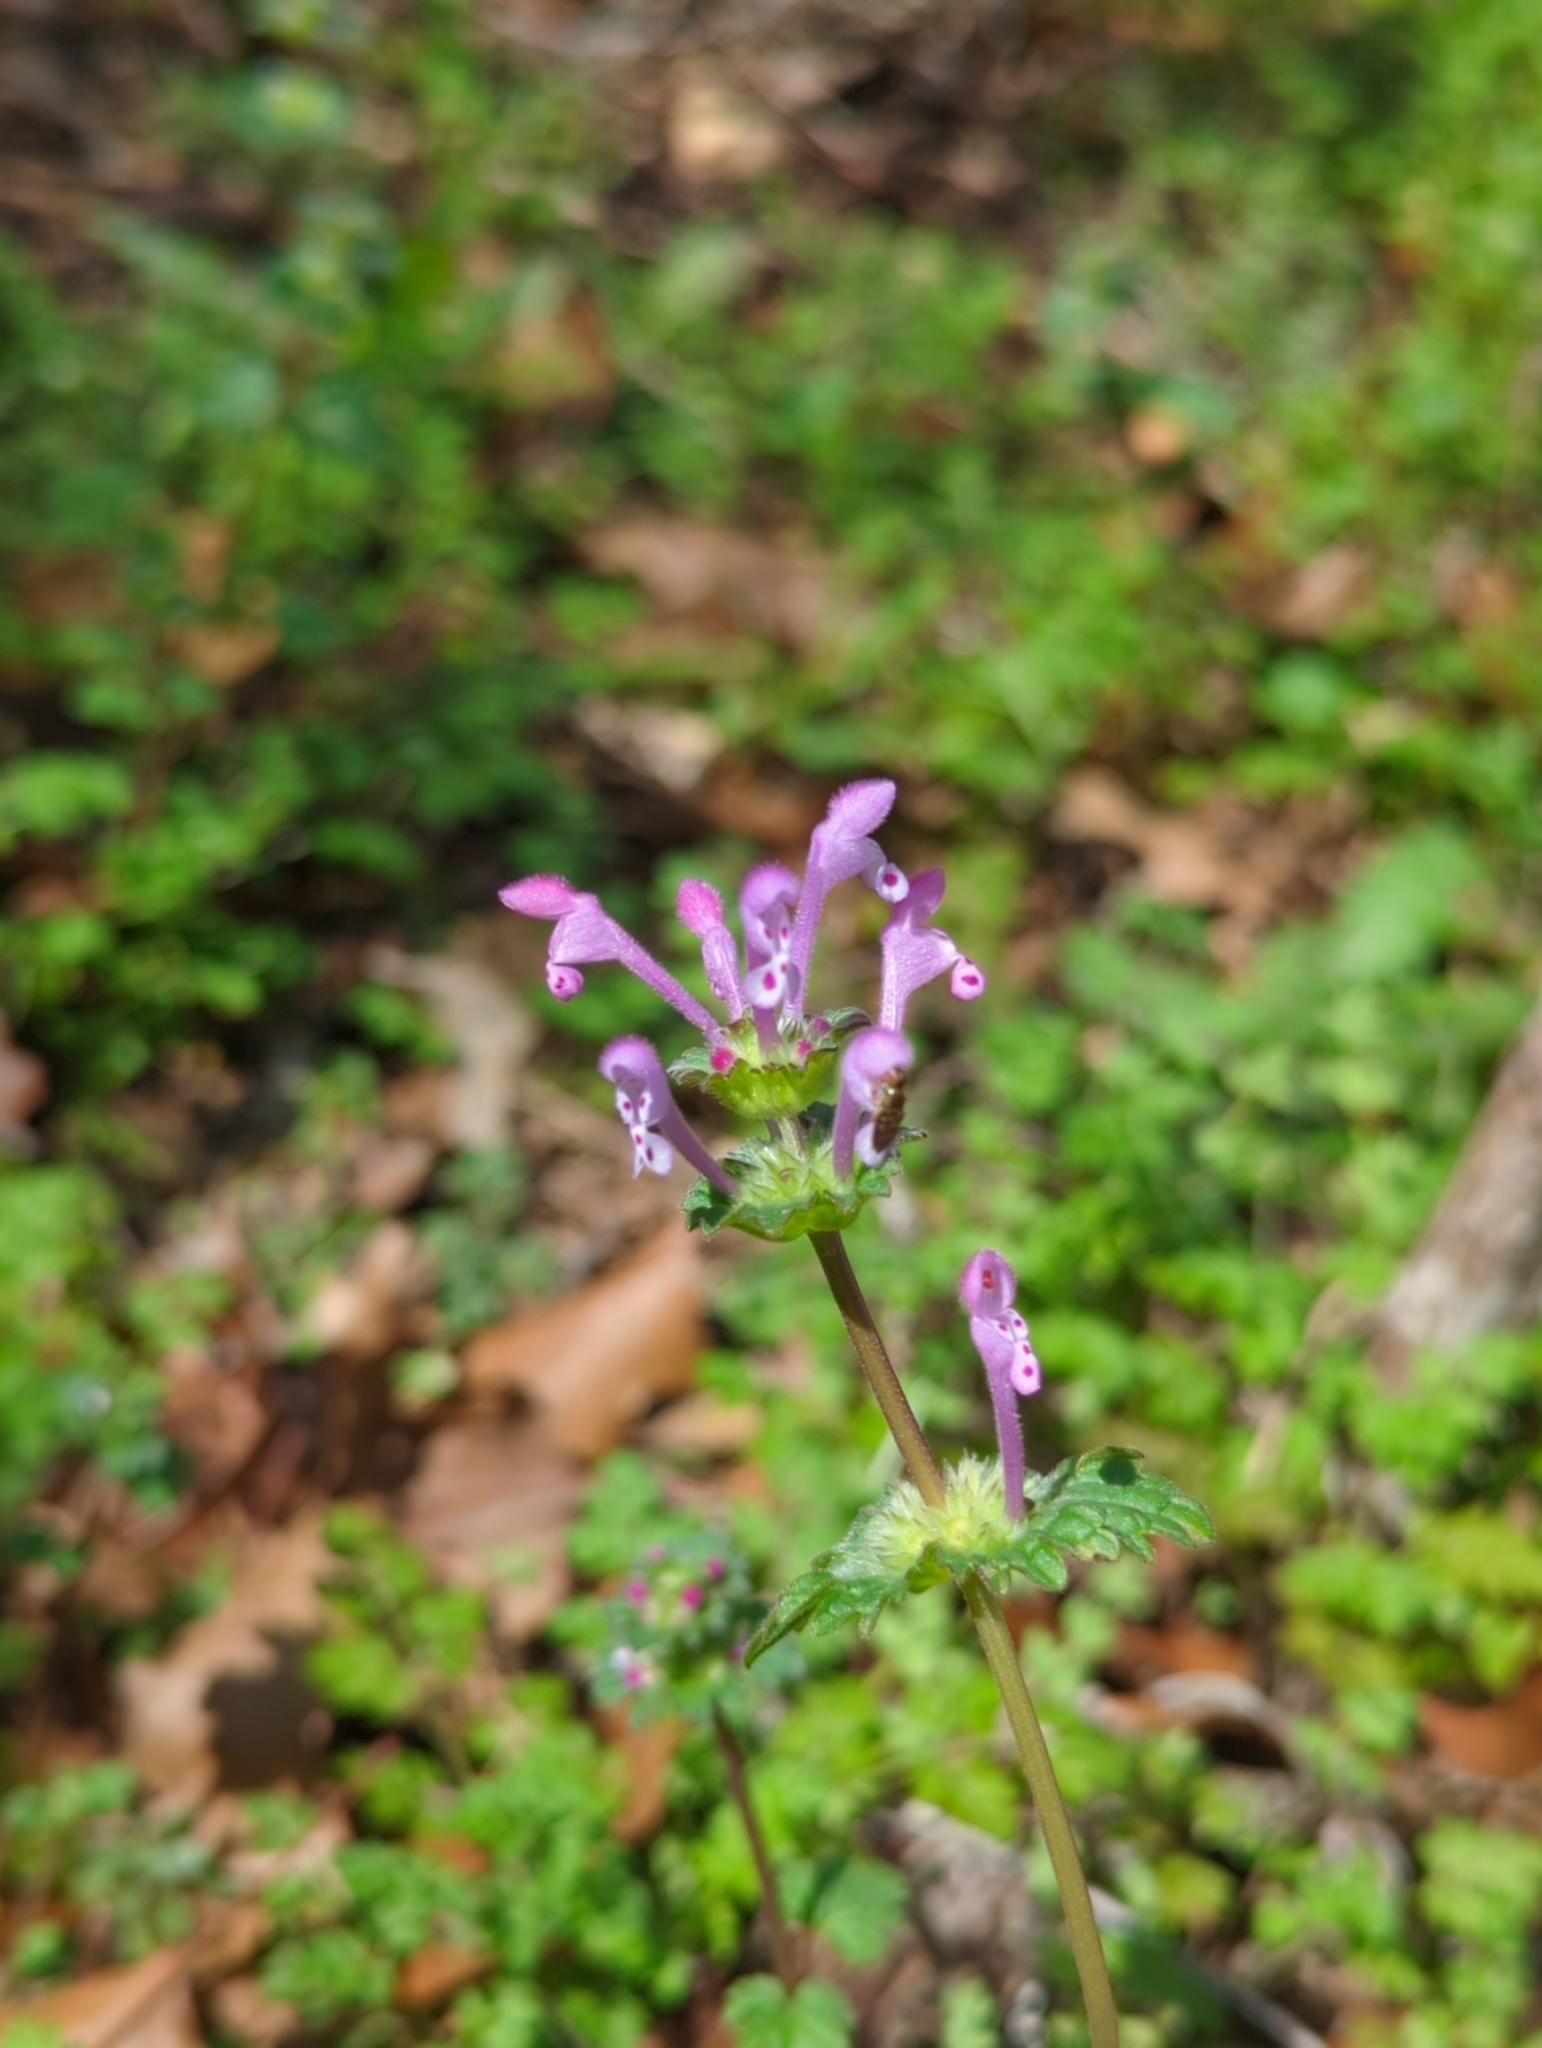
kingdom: Plantae
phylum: Tracheophyta
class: Magnoliopsida
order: Lamiales
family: Lamiaceae
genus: Lamium
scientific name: Lamium amplexicaule
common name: Henbit dead-nettle
